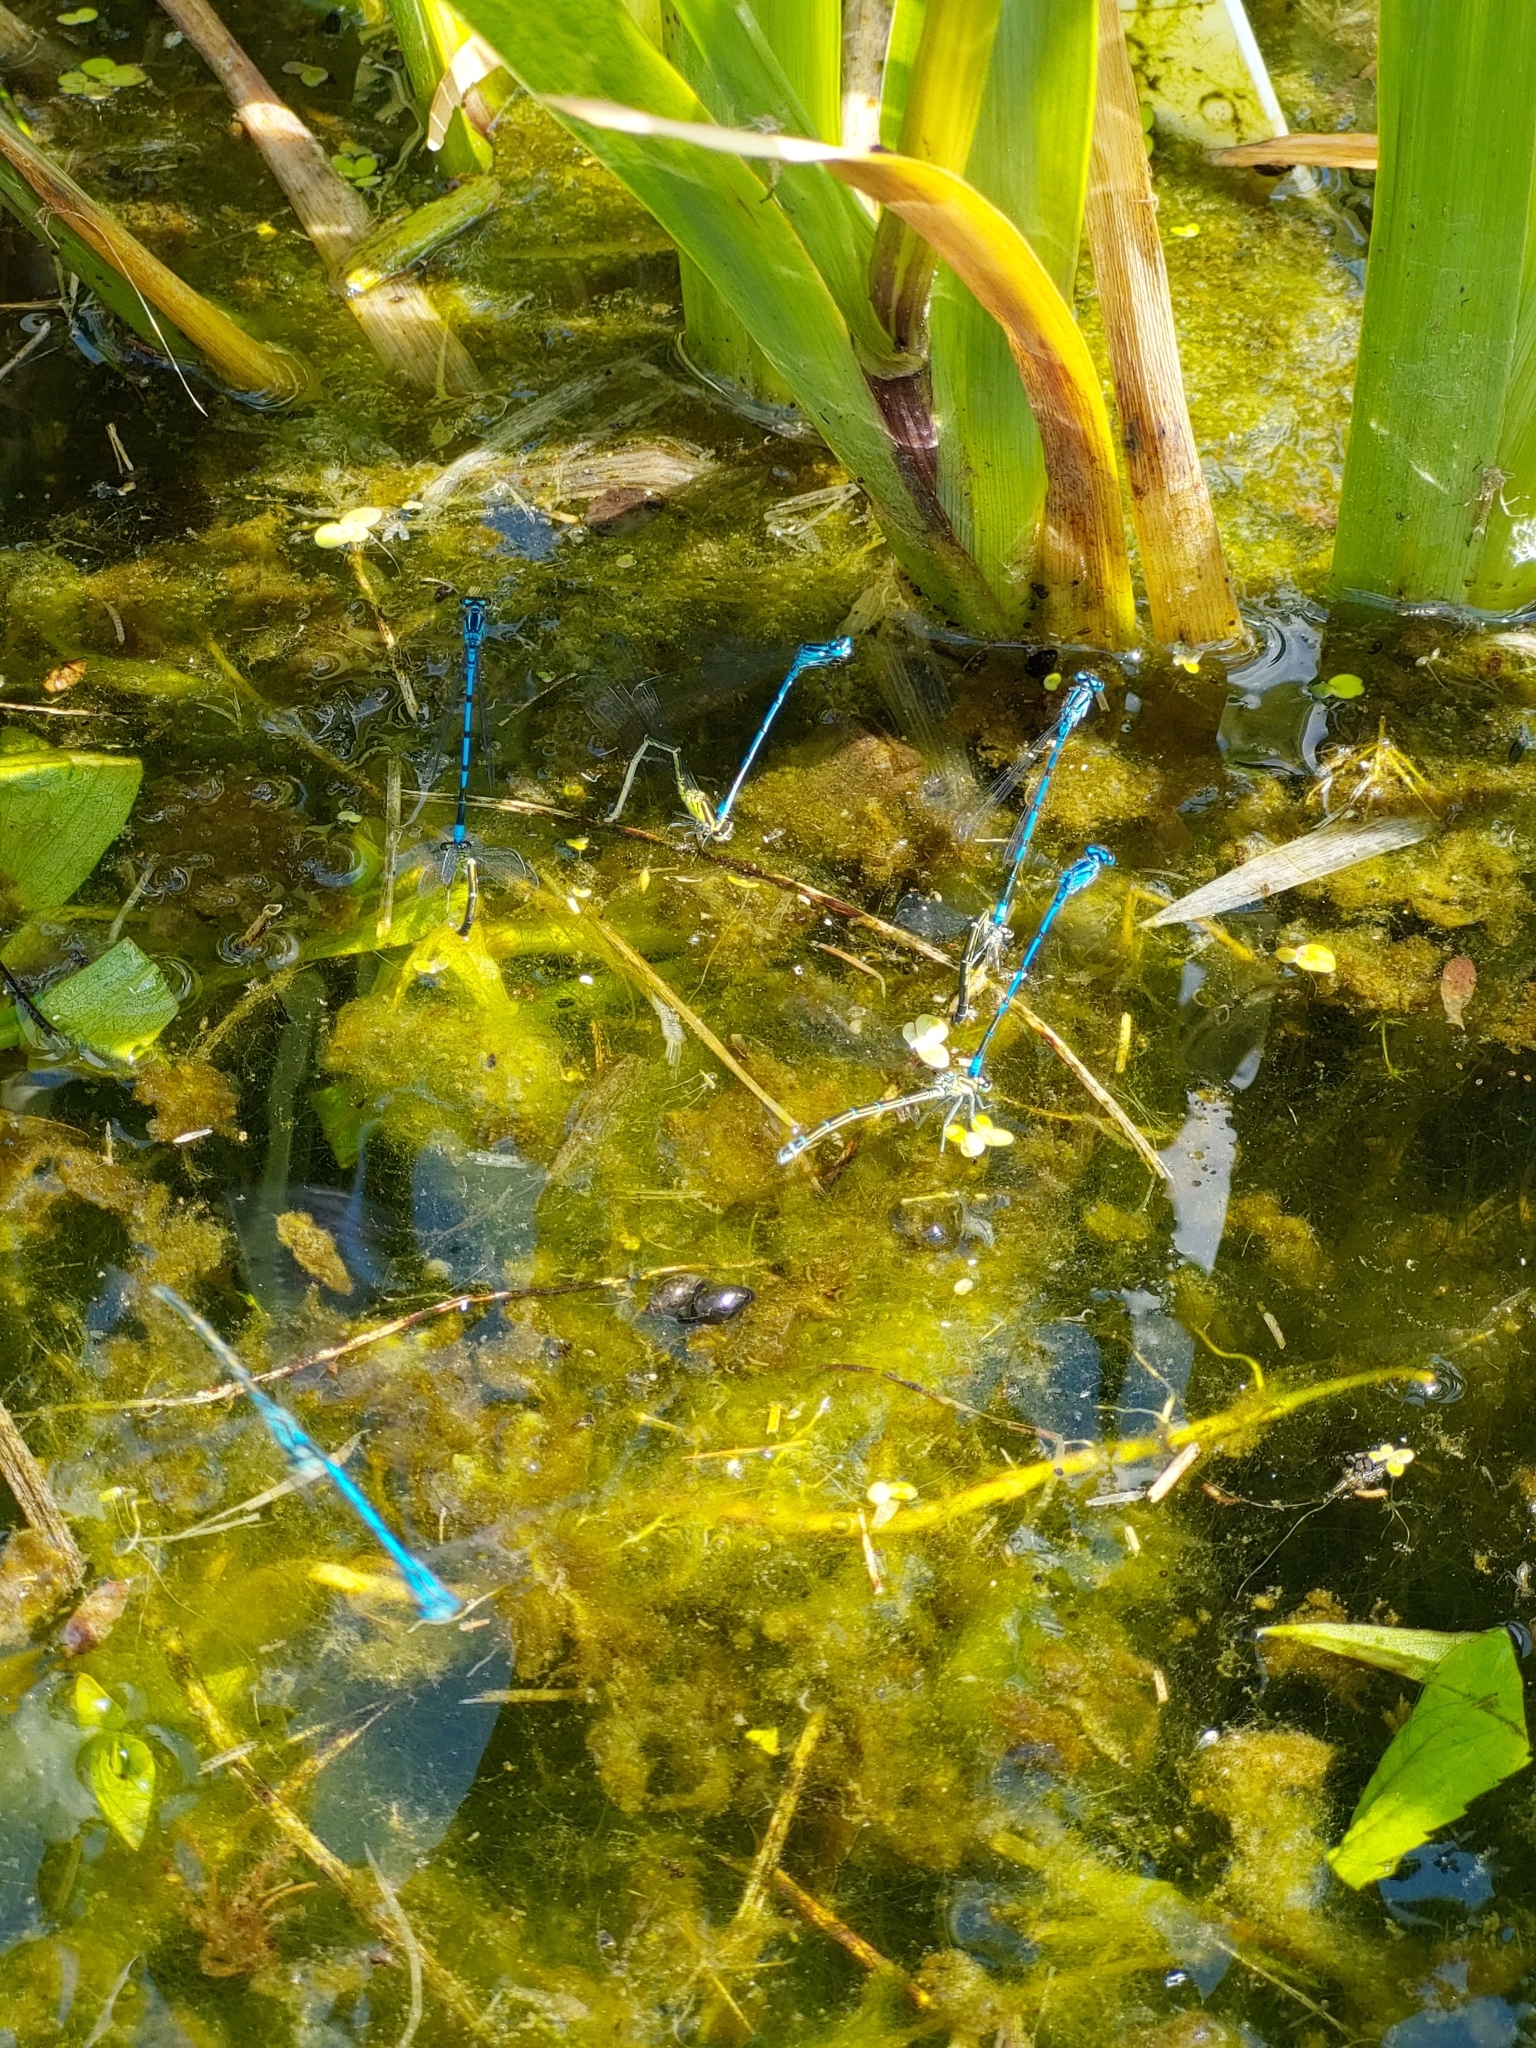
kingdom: Animalia
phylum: Arthropoda
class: Insecta
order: Odonata
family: Coenagrionidae
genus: Coenagrion
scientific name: Coenagrion puella
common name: Azure damselfly
